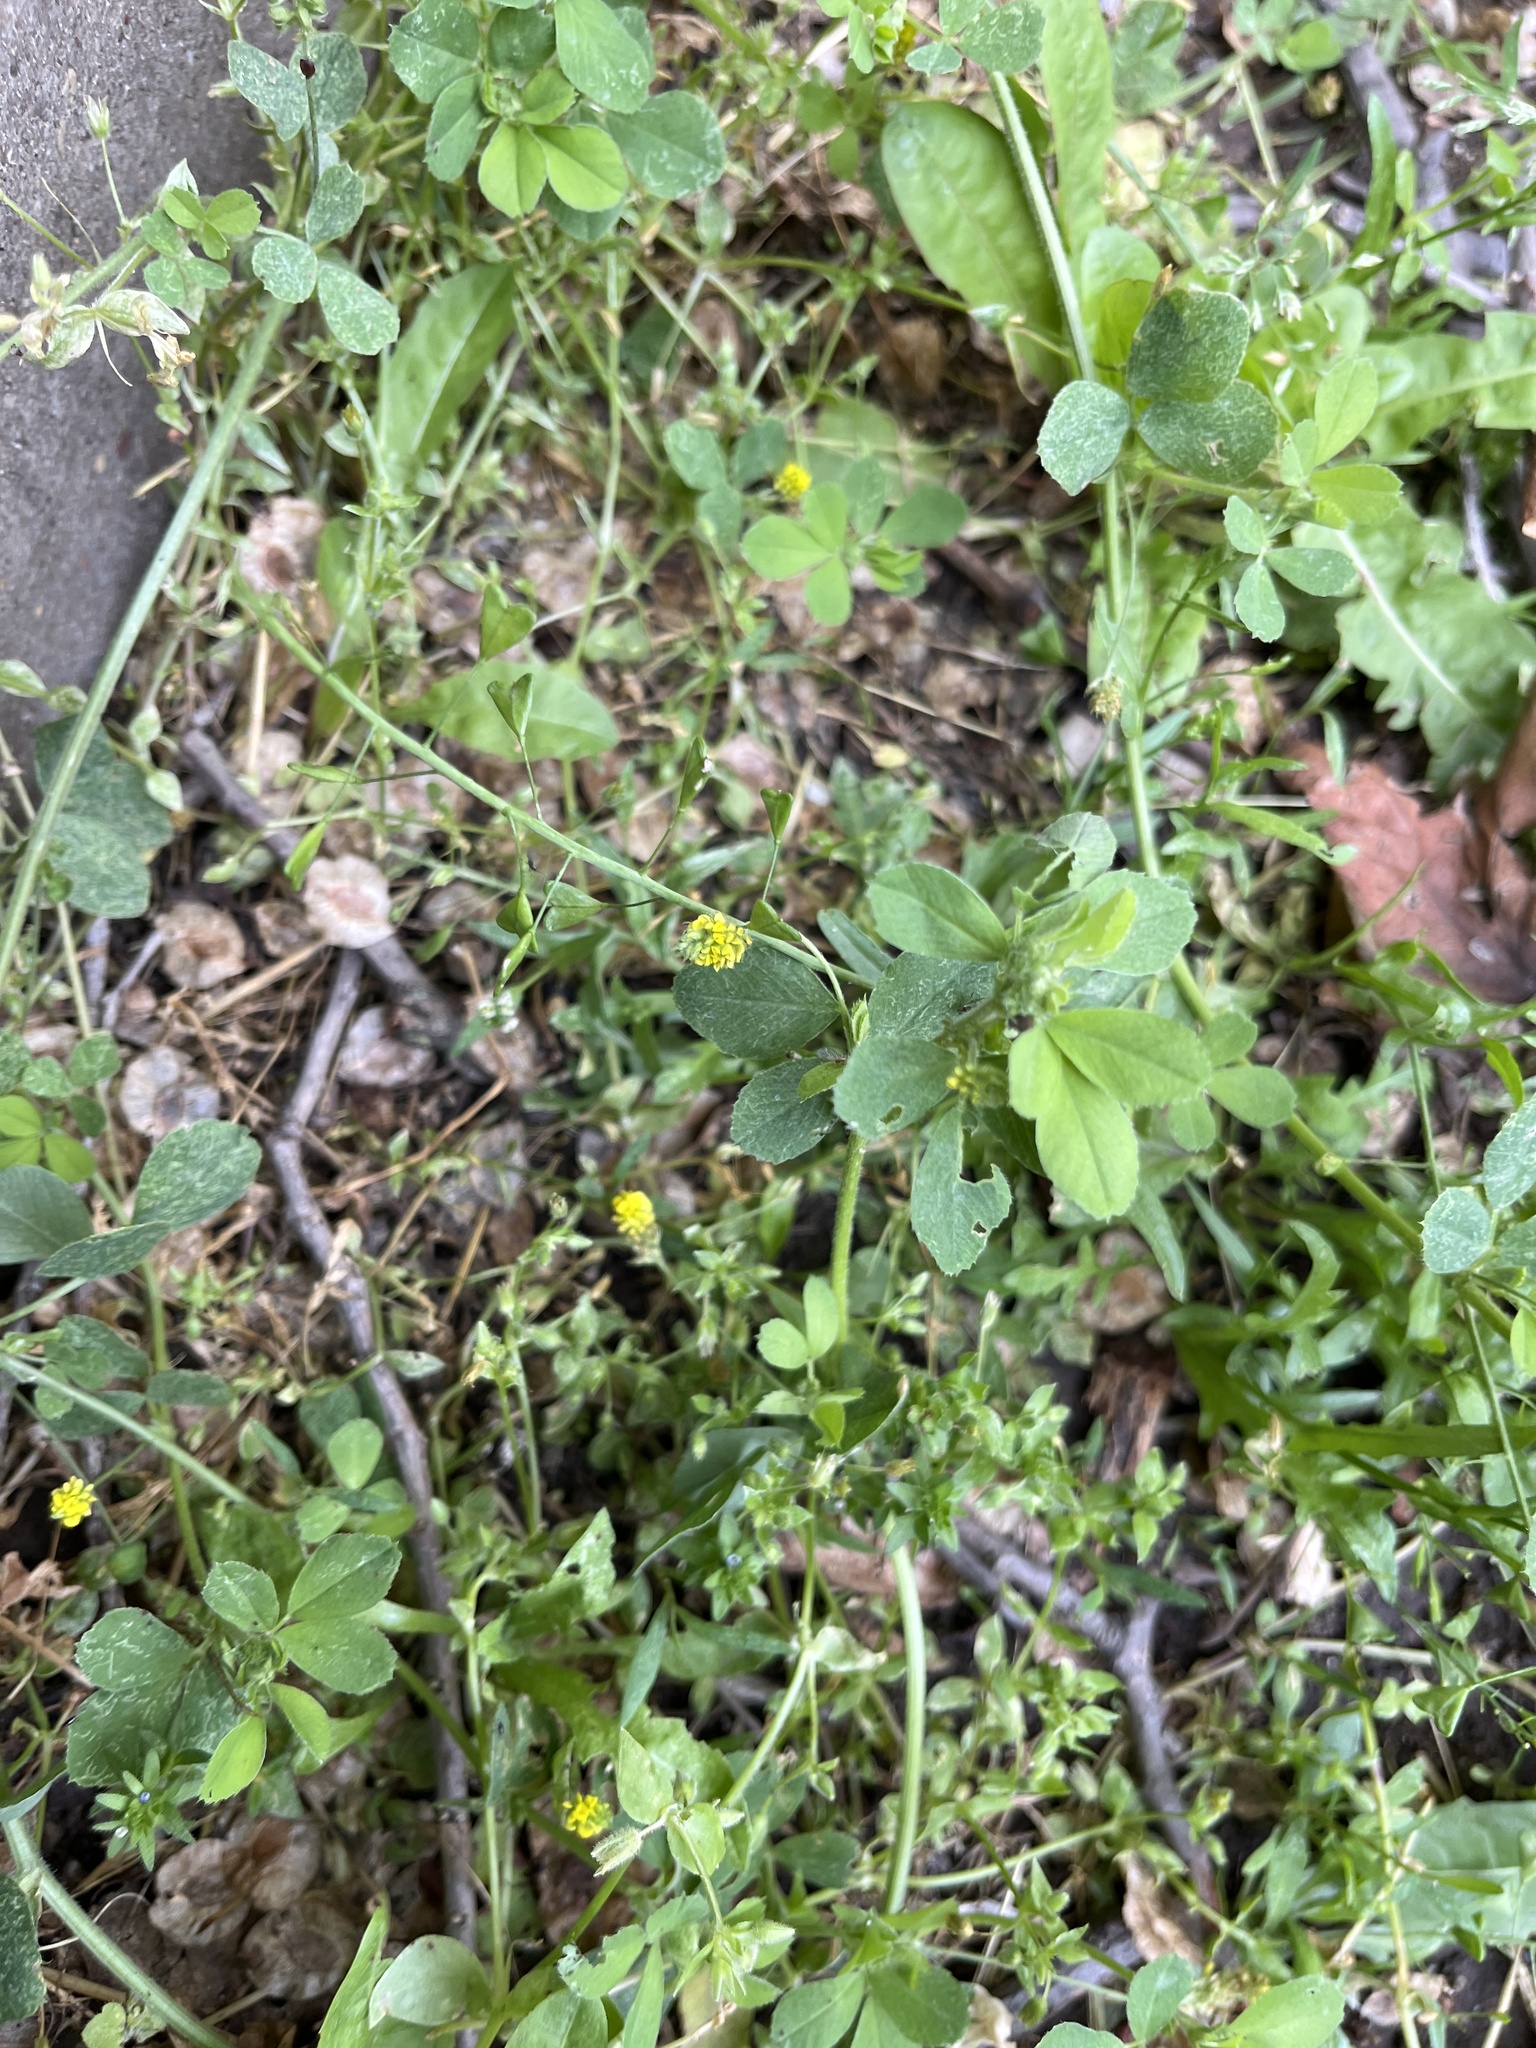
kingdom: Plantae
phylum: Tracheophyta
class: Magnoliopsida
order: Fabales
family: Fabaceae
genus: Medicago
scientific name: Medicago lupulina
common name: Black medick
